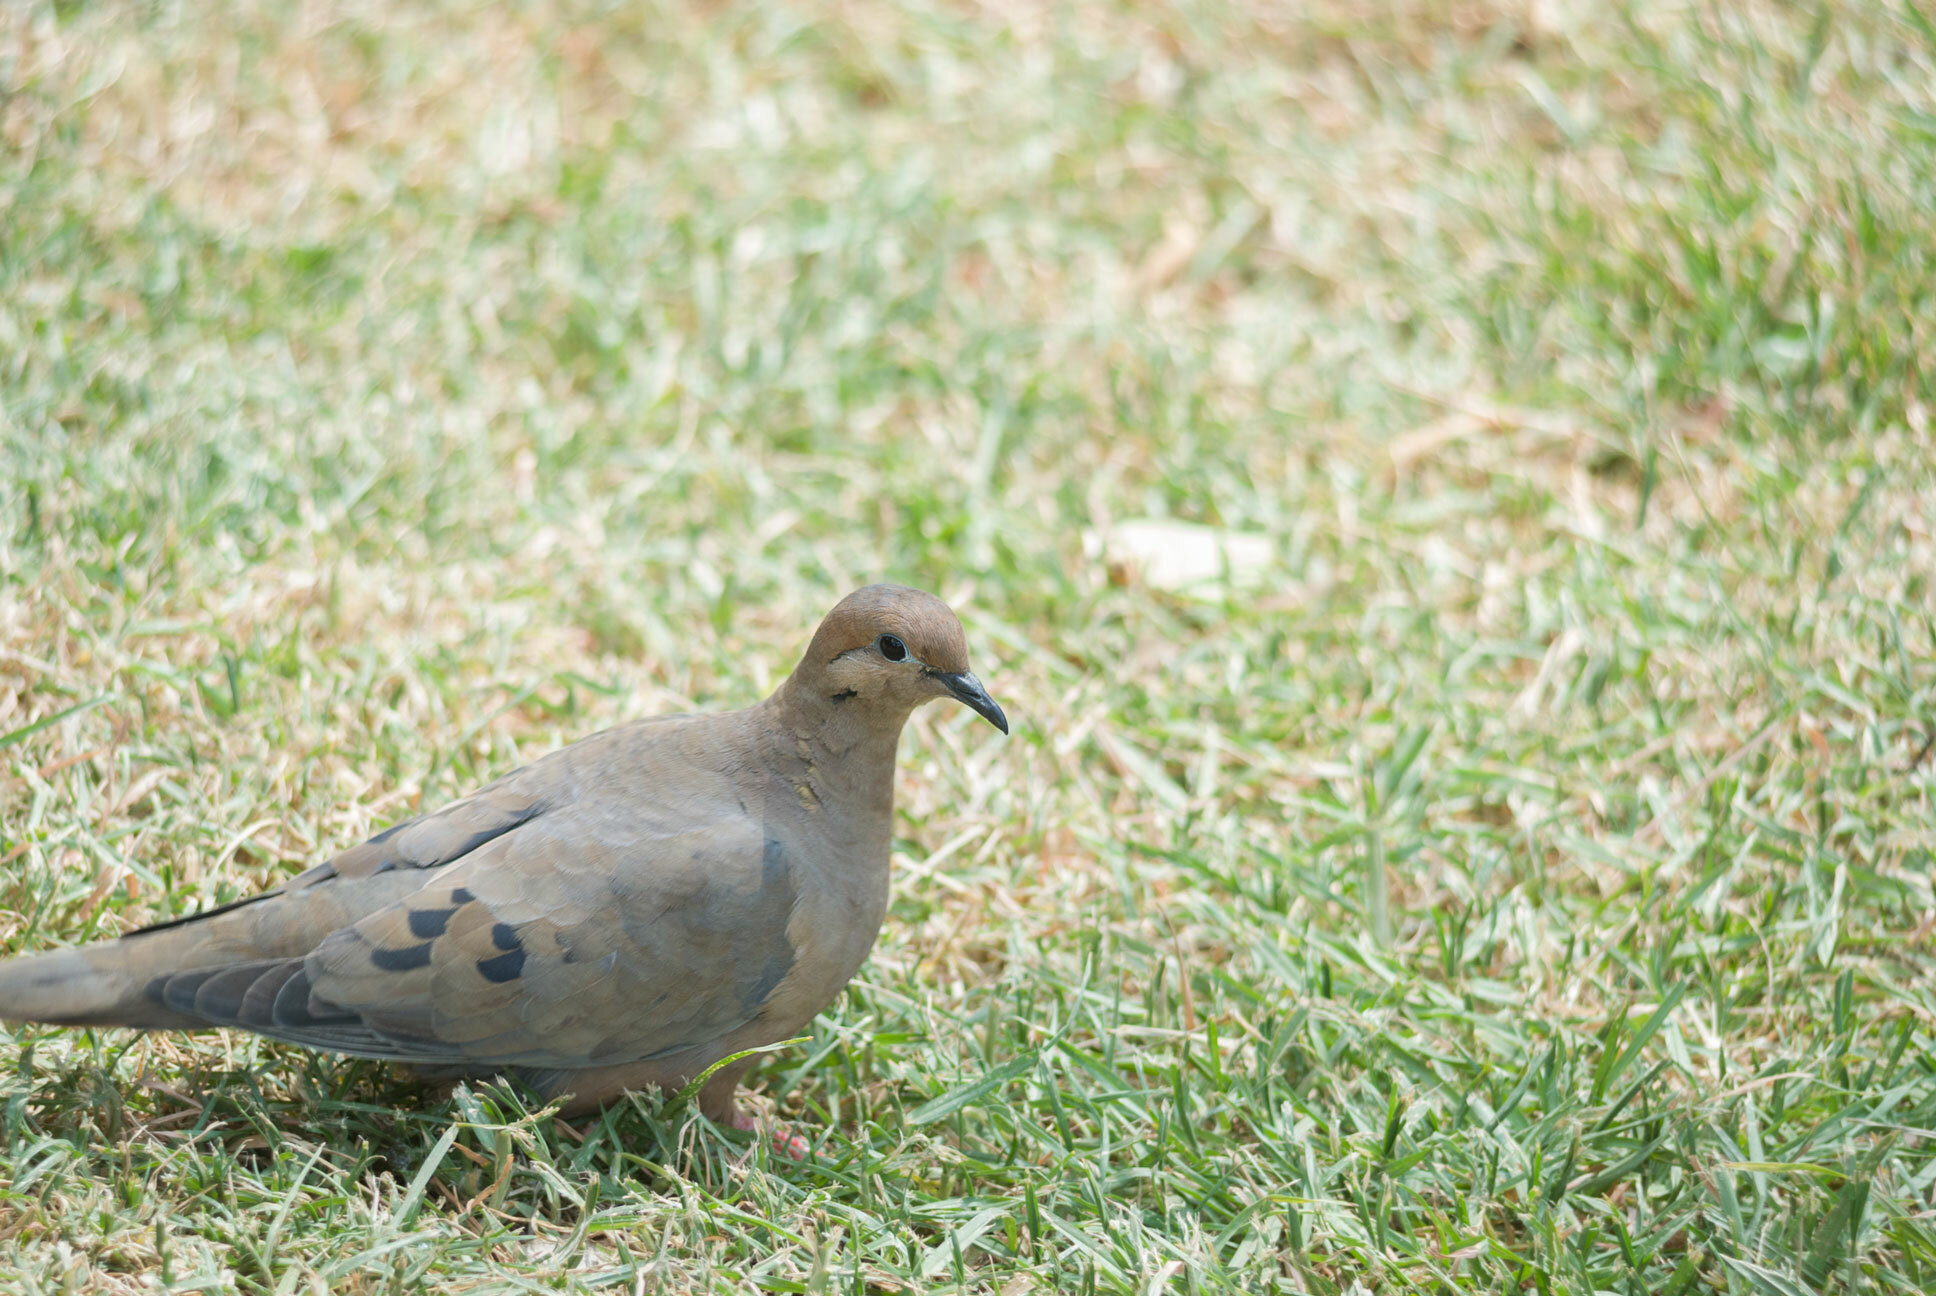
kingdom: Animalia
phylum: Chordata
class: Aves
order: Columbiformes
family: Columbidae
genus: Zenaida
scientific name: Zenaida auriculata
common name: Eared dove
